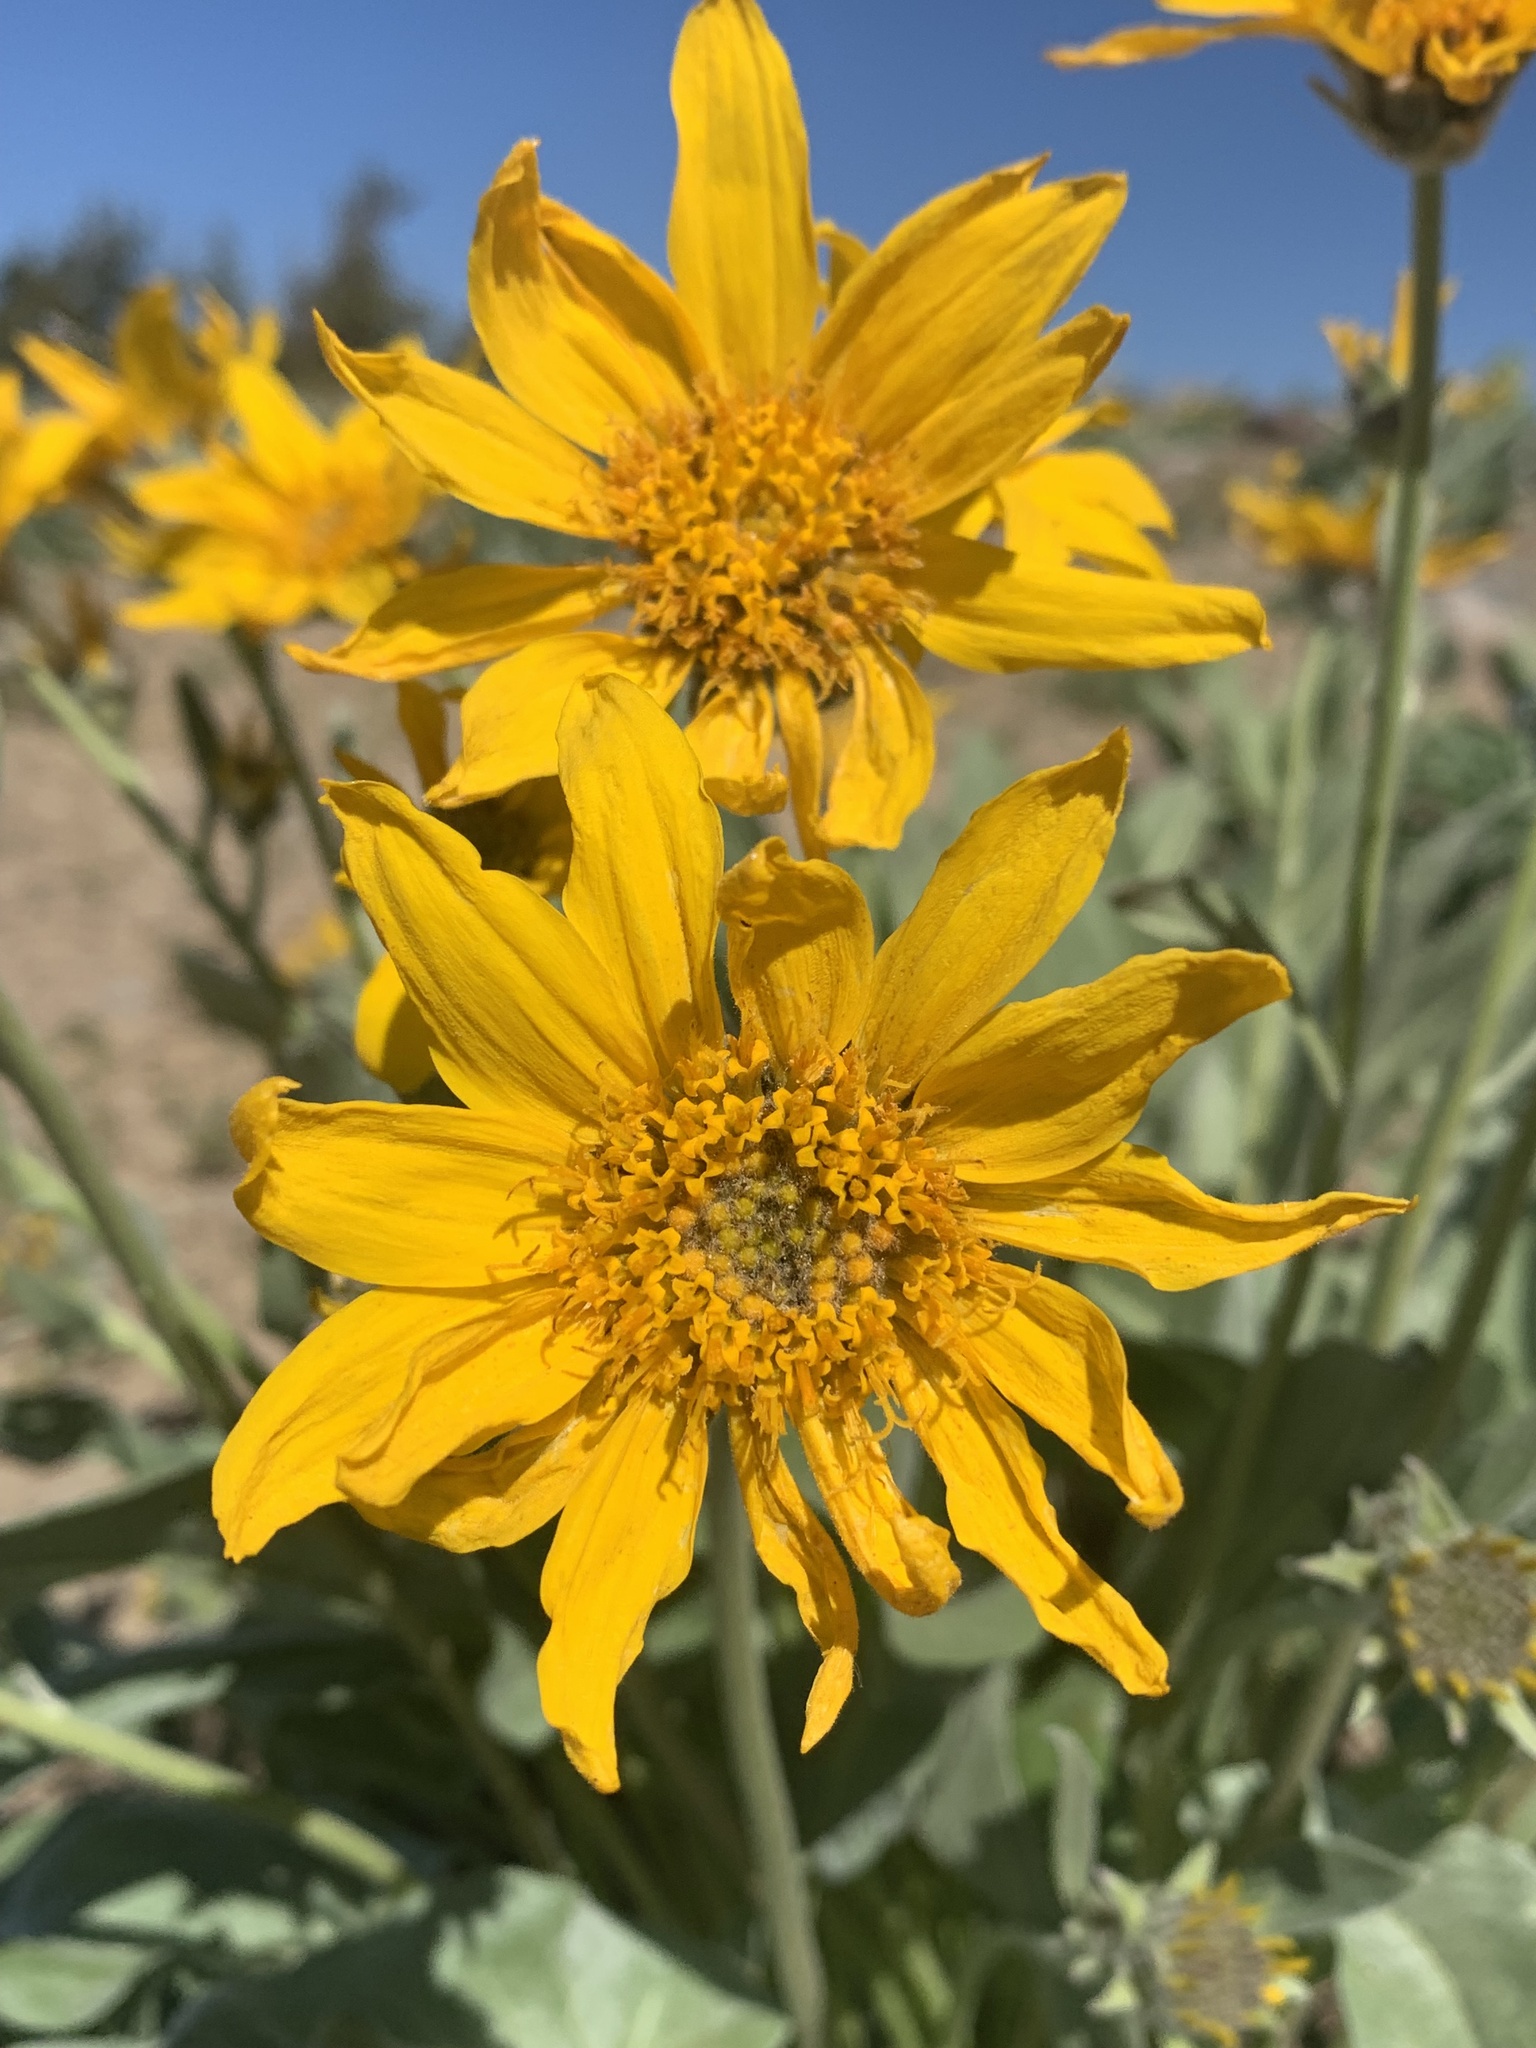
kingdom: Plantae
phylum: Tracheophyta
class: Magnoliopsida
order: Asterales
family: Asteraceae
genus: Wyethia
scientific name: Wyethia sagittata
